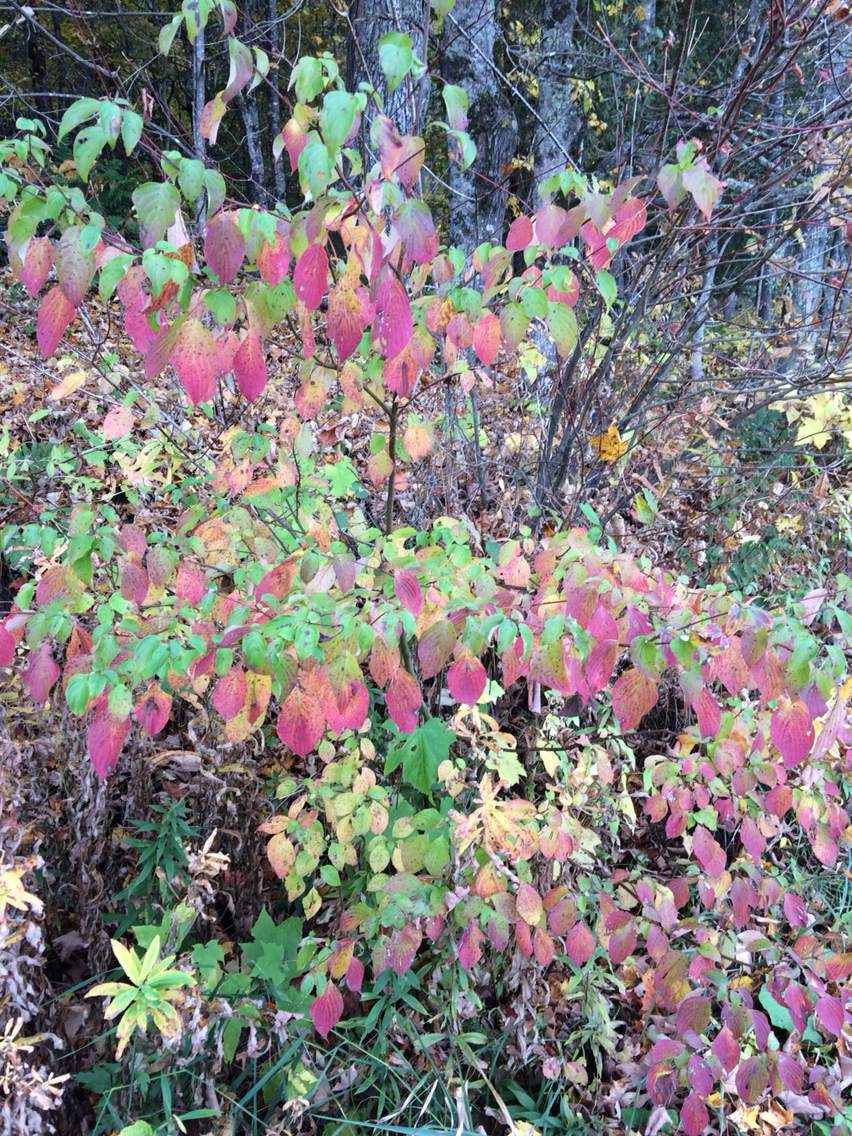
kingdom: Plantae
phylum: Tracheophyta
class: Magnoliopsida
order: Cornales
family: Cornaceae
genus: Cornus
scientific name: Cornus alternifolia
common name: Pagoda dogwood
